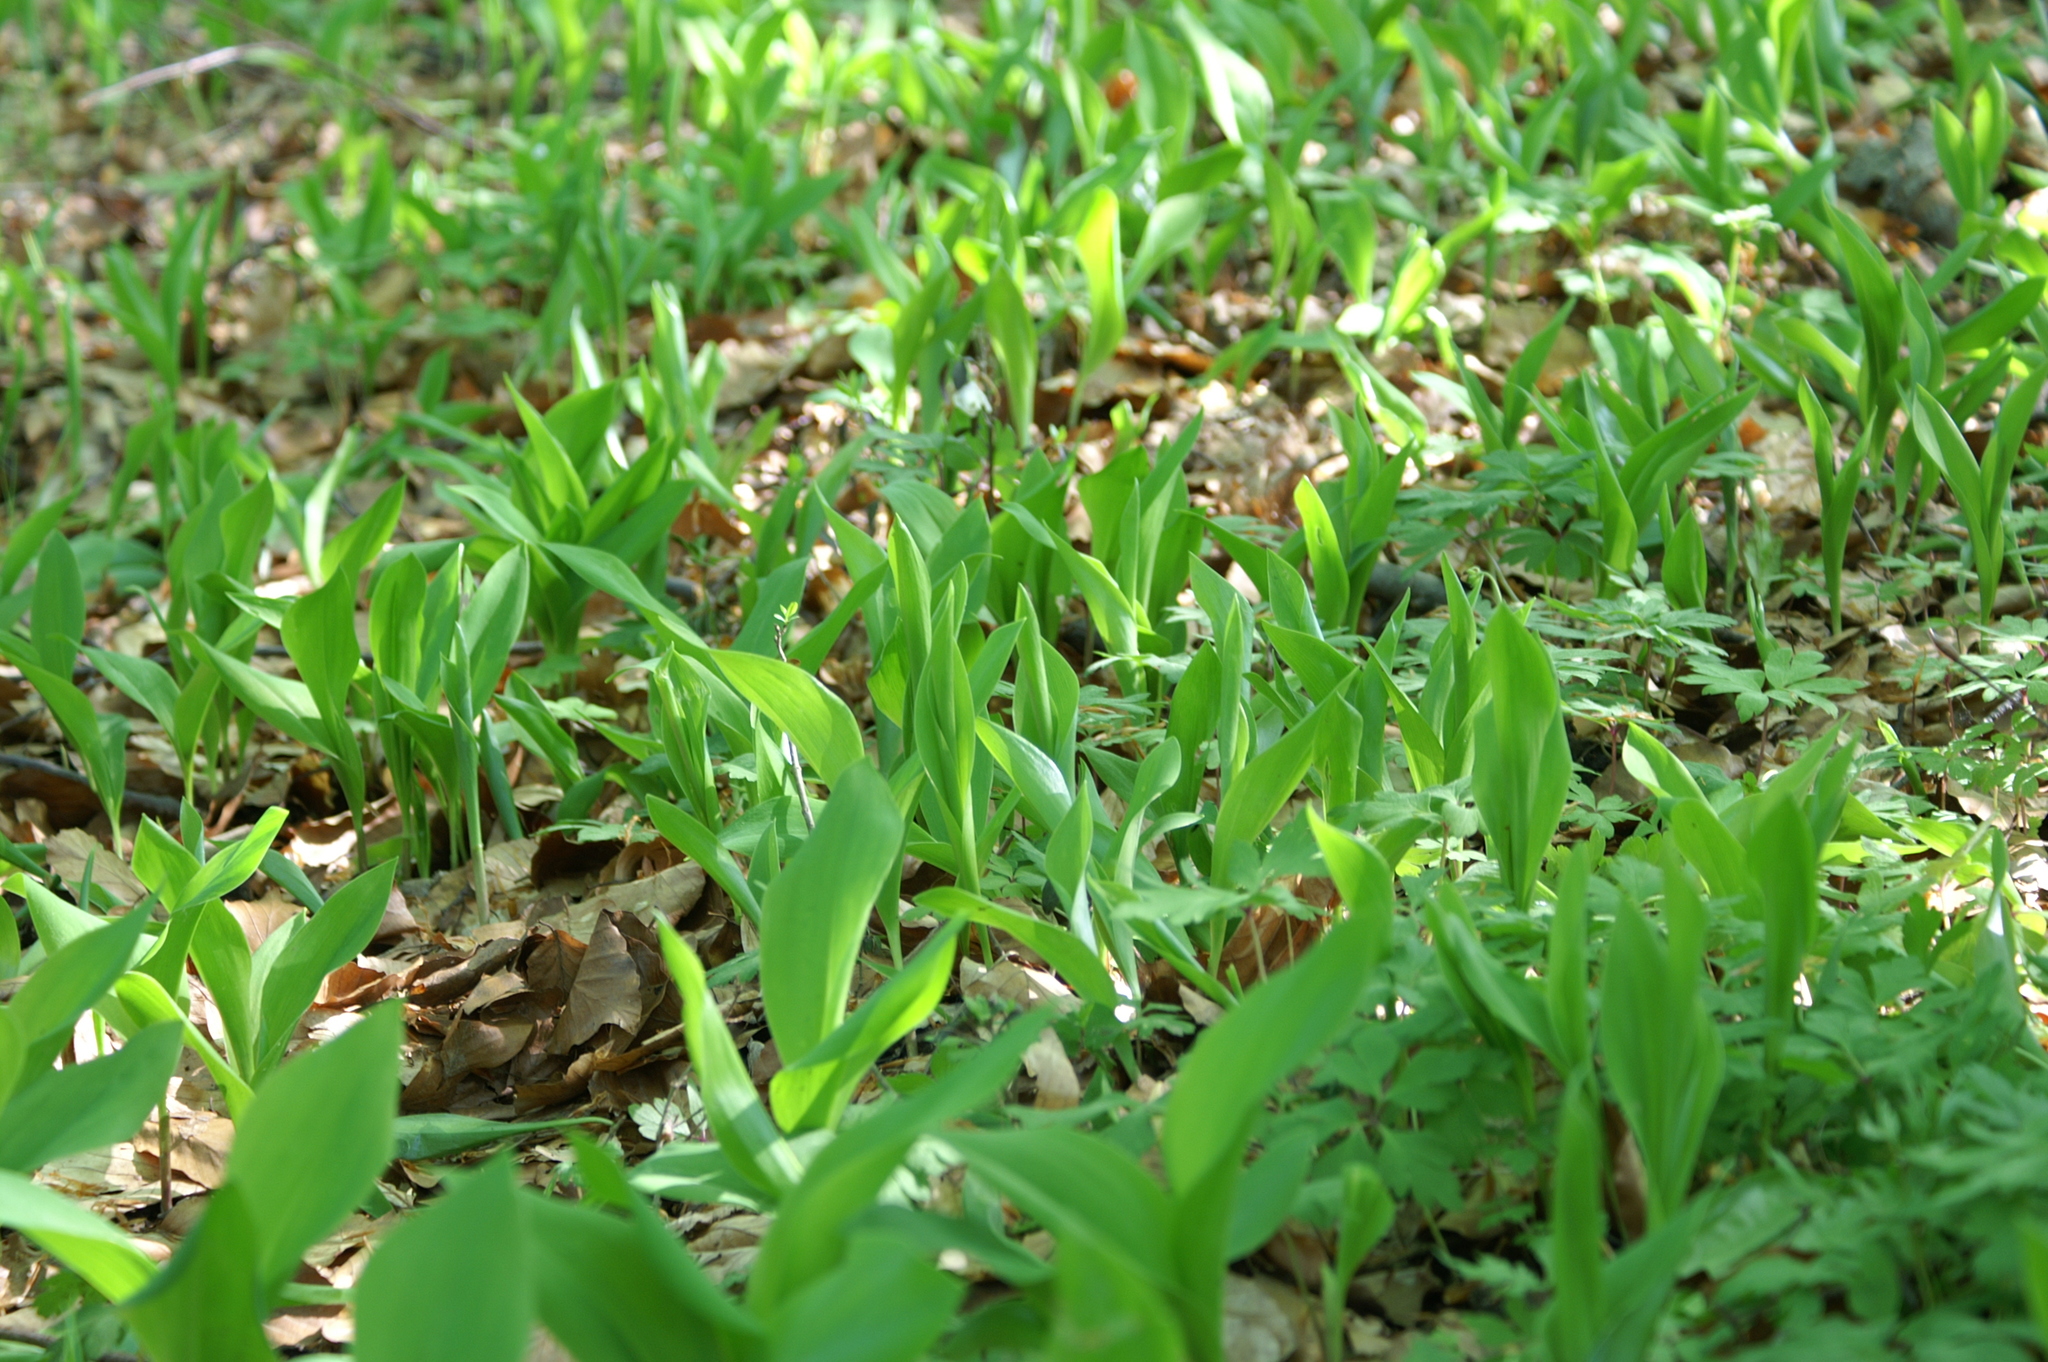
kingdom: Plantae
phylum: Tracheophyta
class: Liliopsida
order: Asparagales
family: Asparagaceae
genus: Convallaria
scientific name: Convallaria majalis
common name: Lily-of-the-valley
